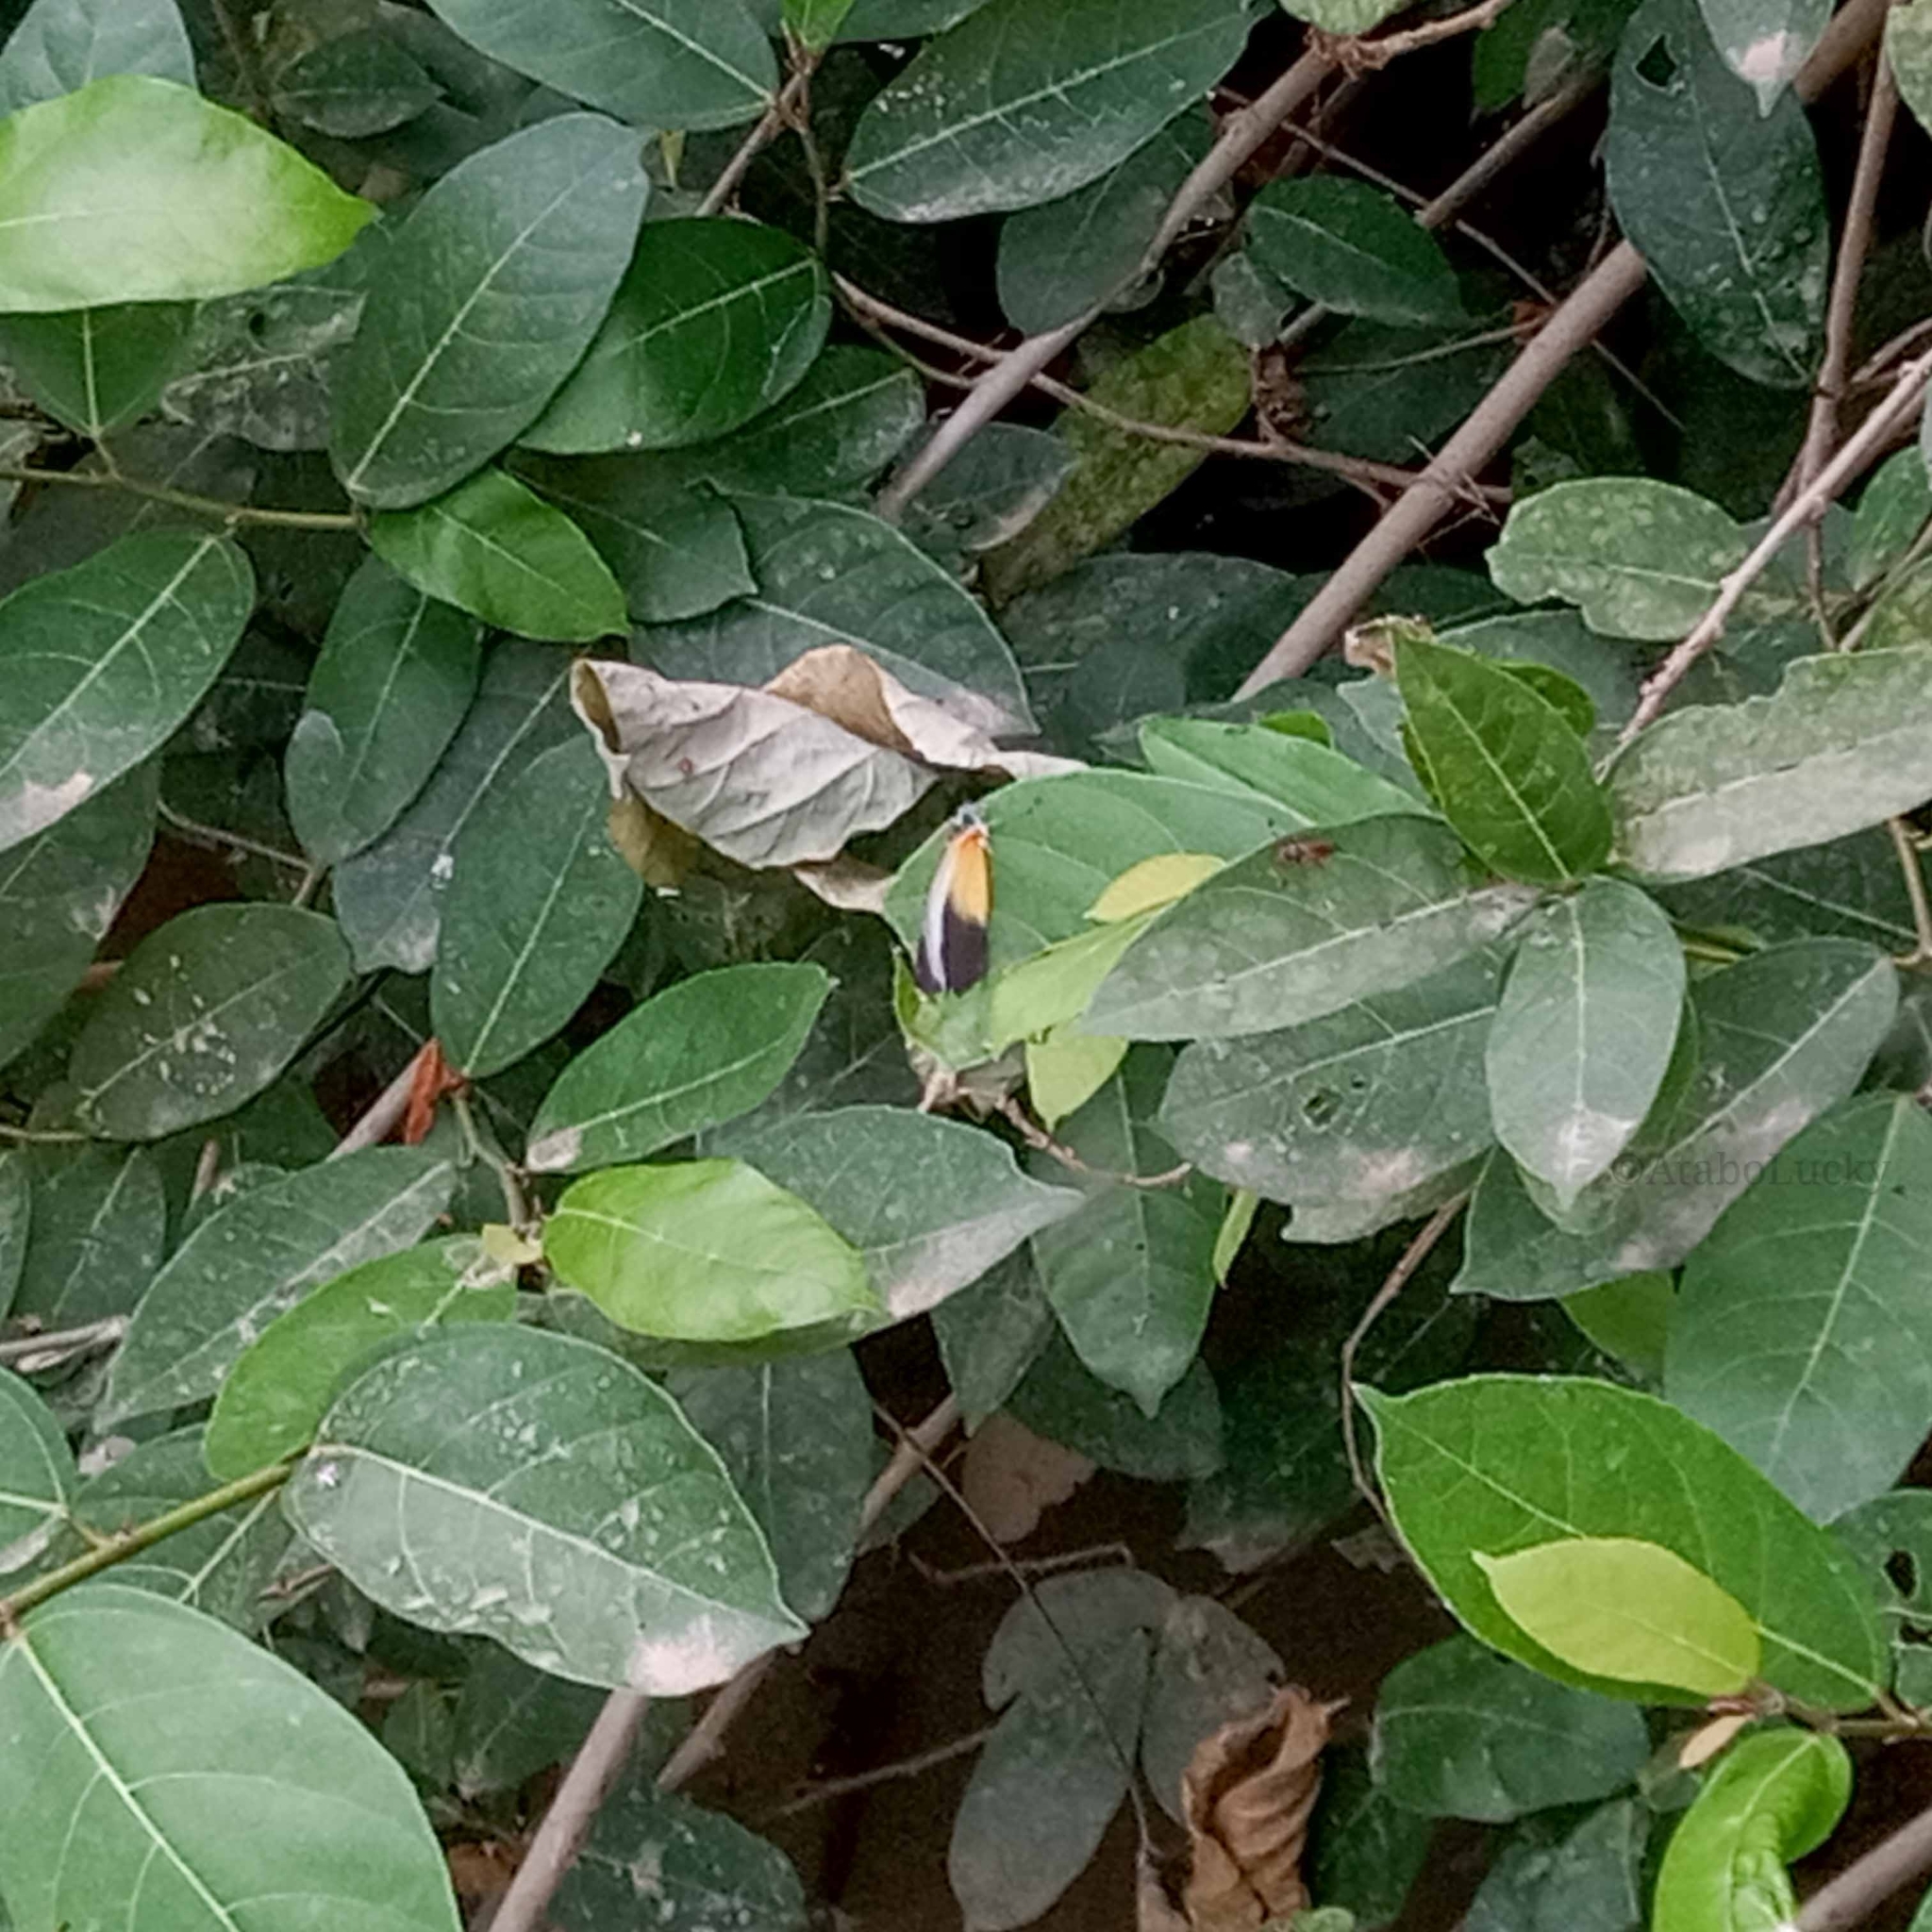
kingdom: Animalia
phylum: Arthropoda
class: Insecta
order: Lepidoptera
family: Pieridae
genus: Mylothris
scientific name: Mylothris chloris
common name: Western dotted border
